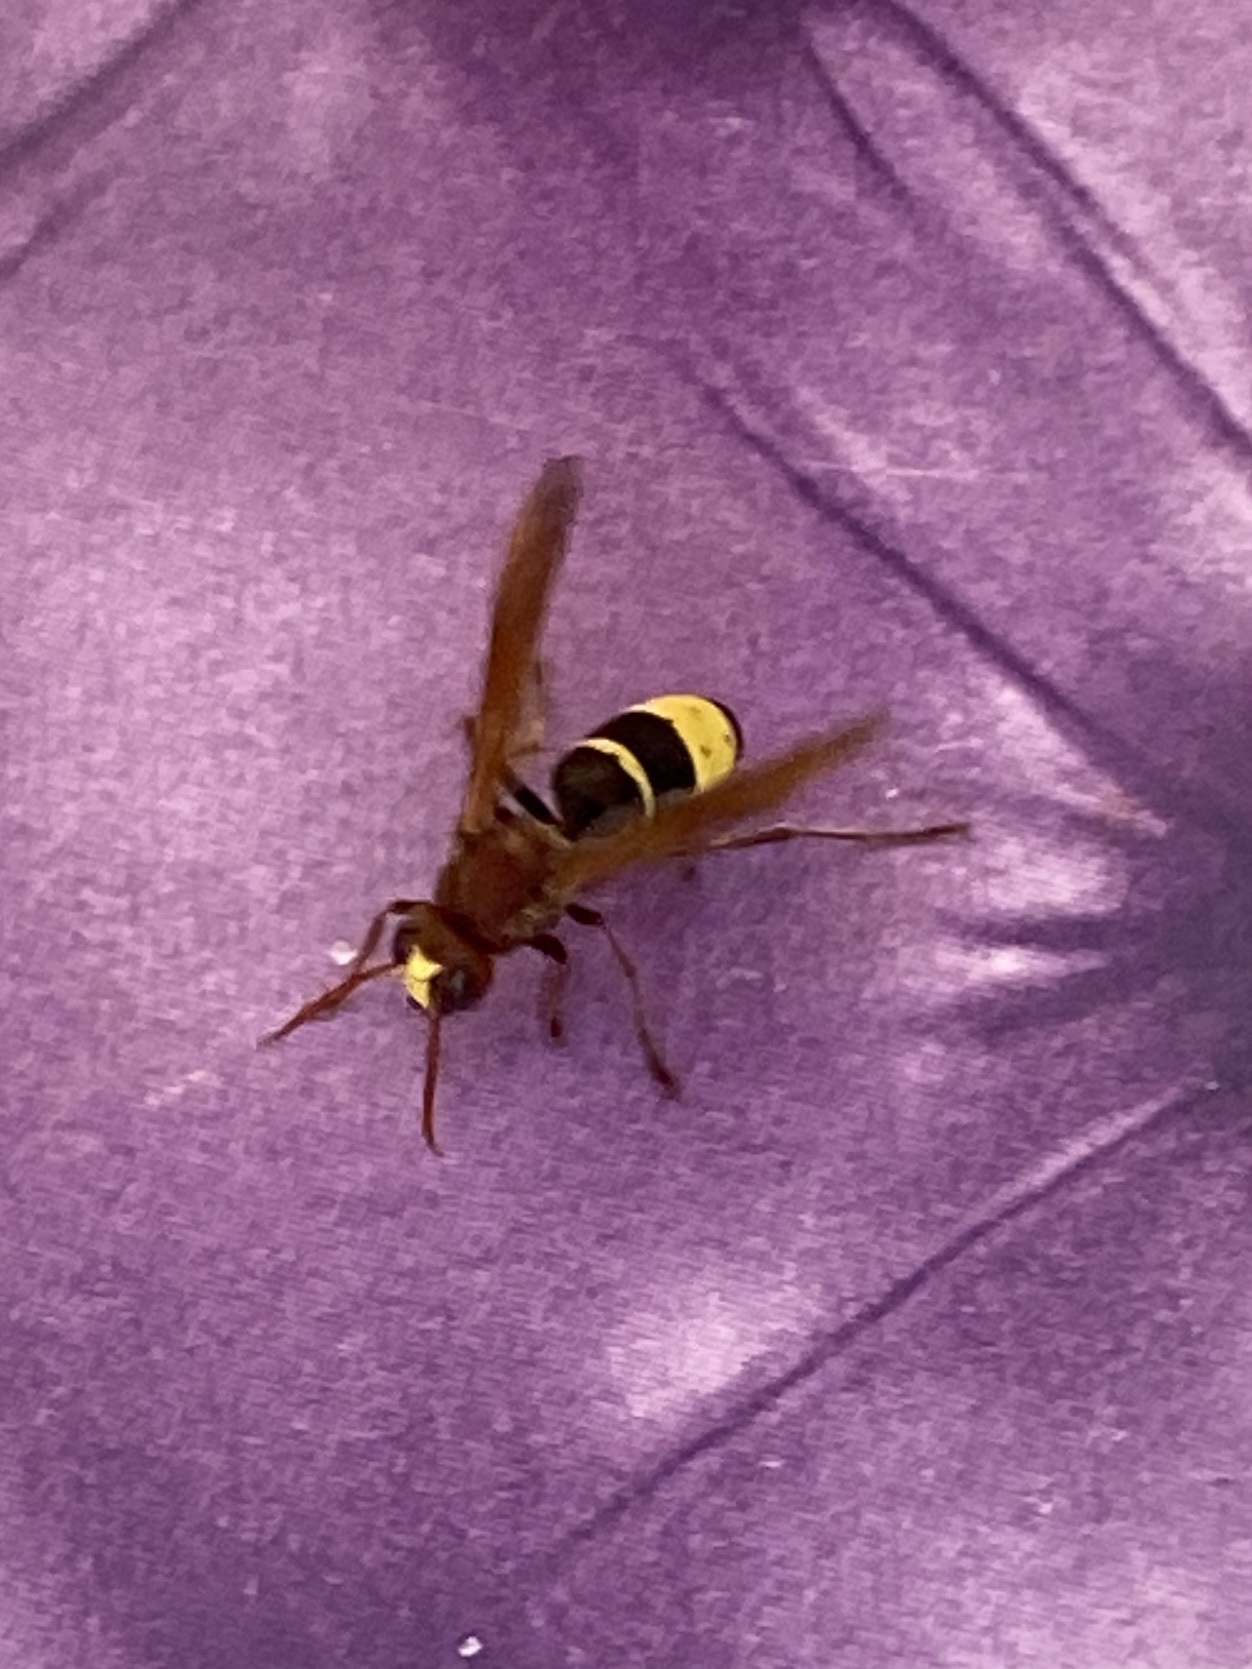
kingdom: Animalia
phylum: Arthropoda
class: Insecta
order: Hymenoptera
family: Vespidae
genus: Vespa
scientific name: Vespa orientalis
